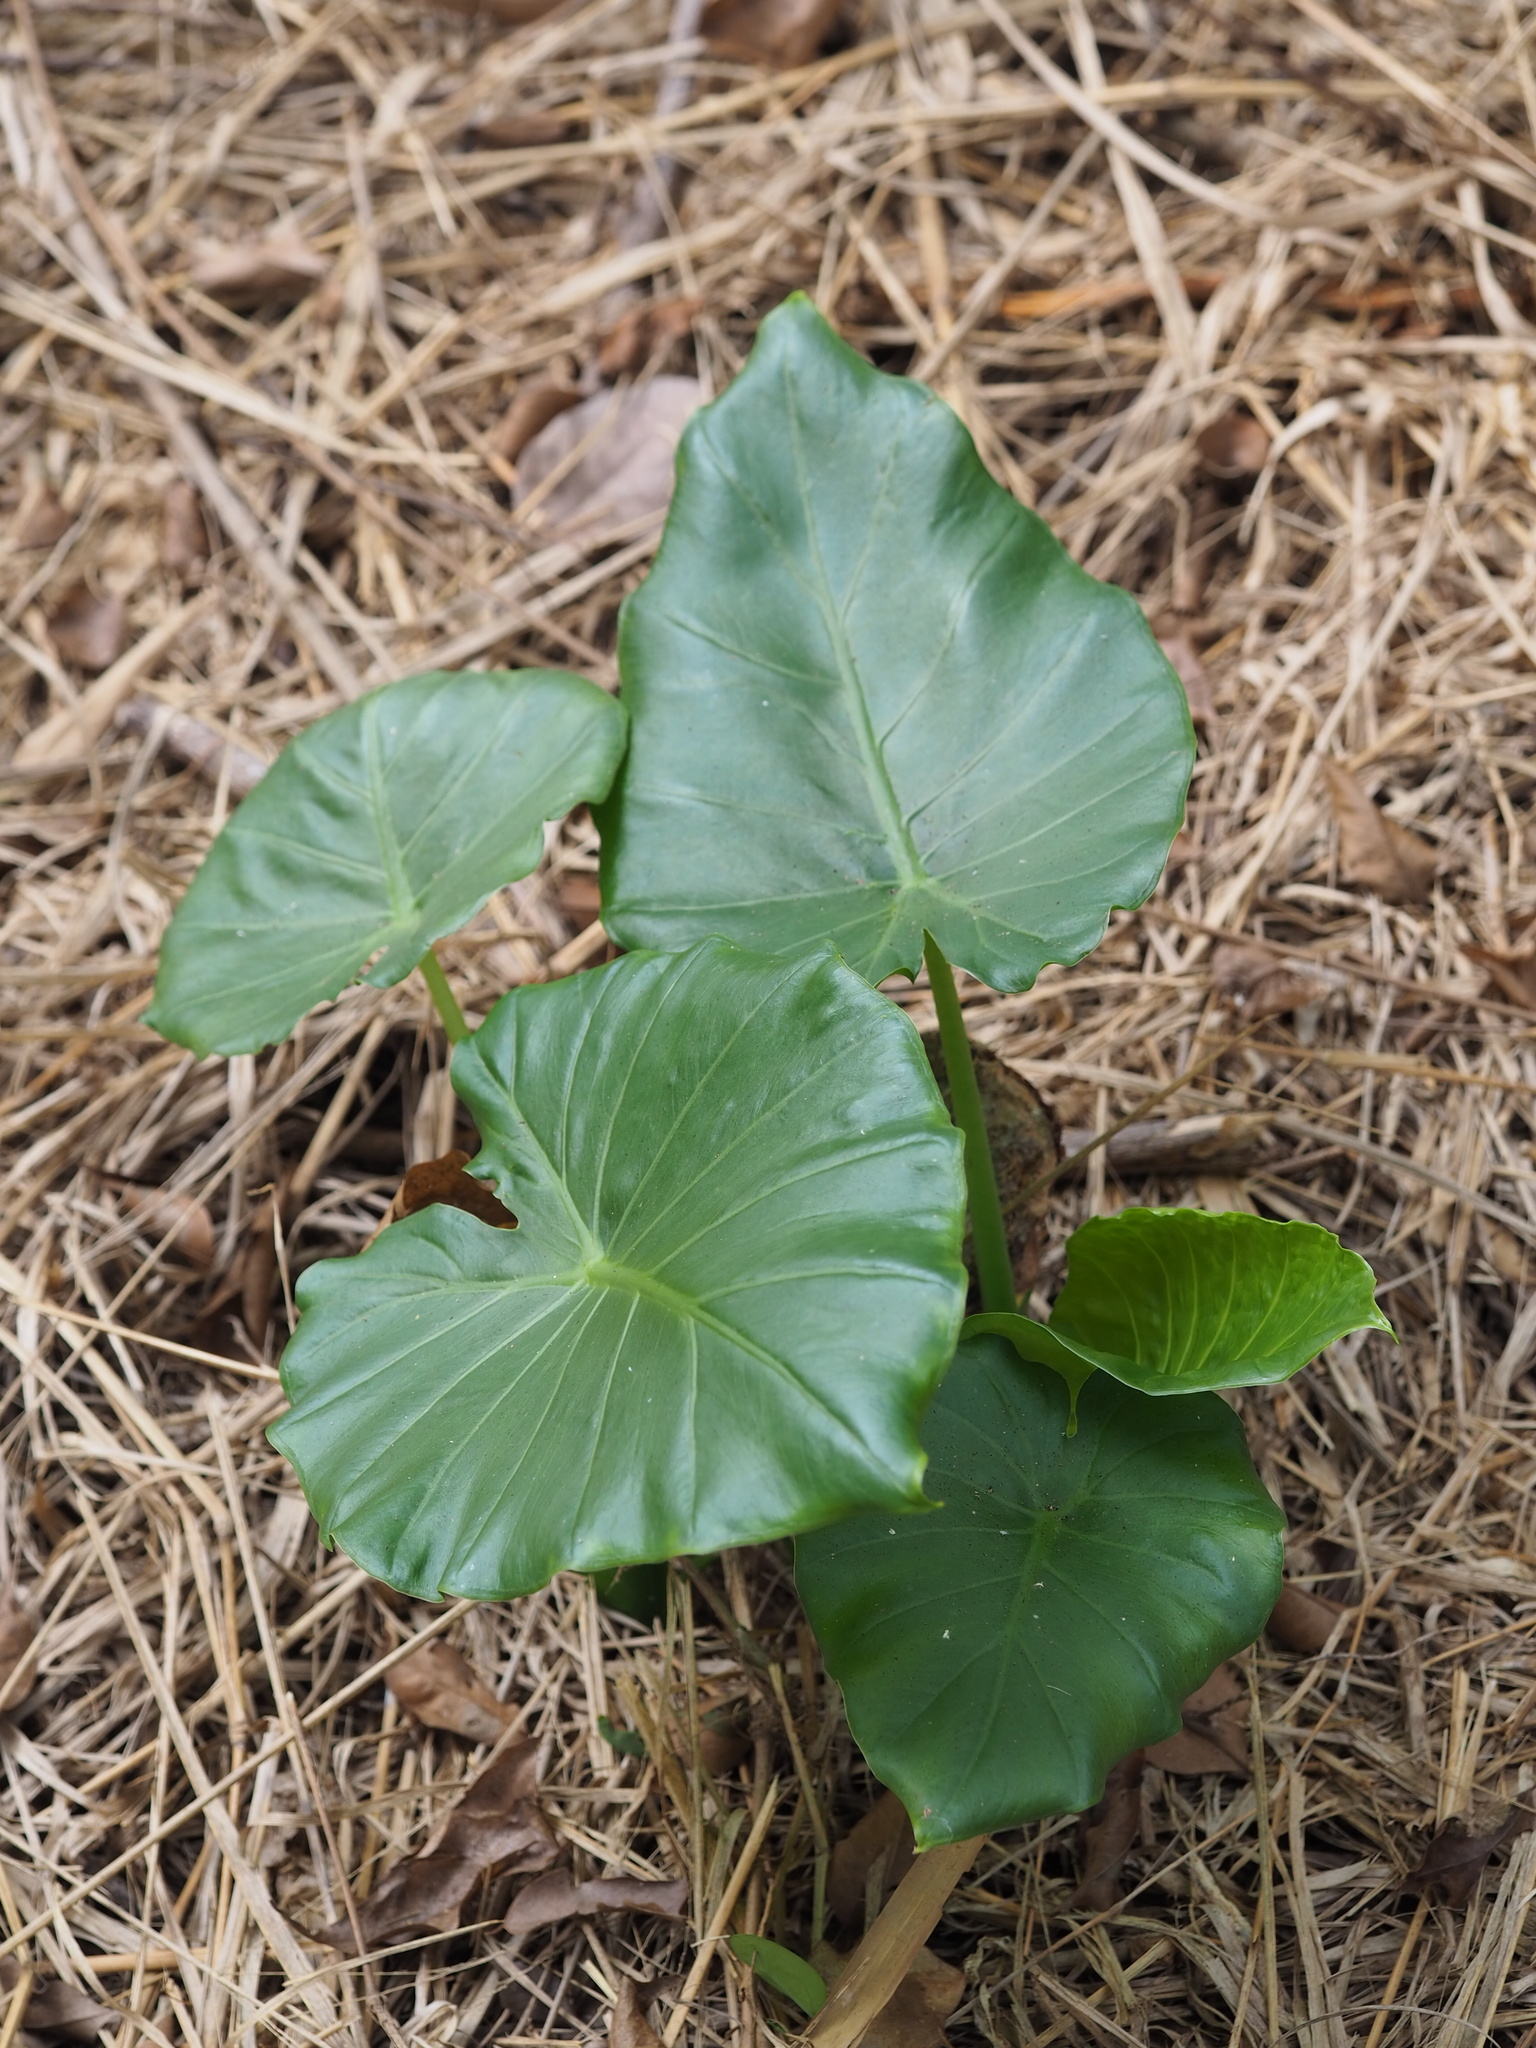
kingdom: Plantae
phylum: Tracheophyta
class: Liliopsida
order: Alismatales
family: Araceae
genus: Alocasia
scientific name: Alocasia odora
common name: Asian taro
